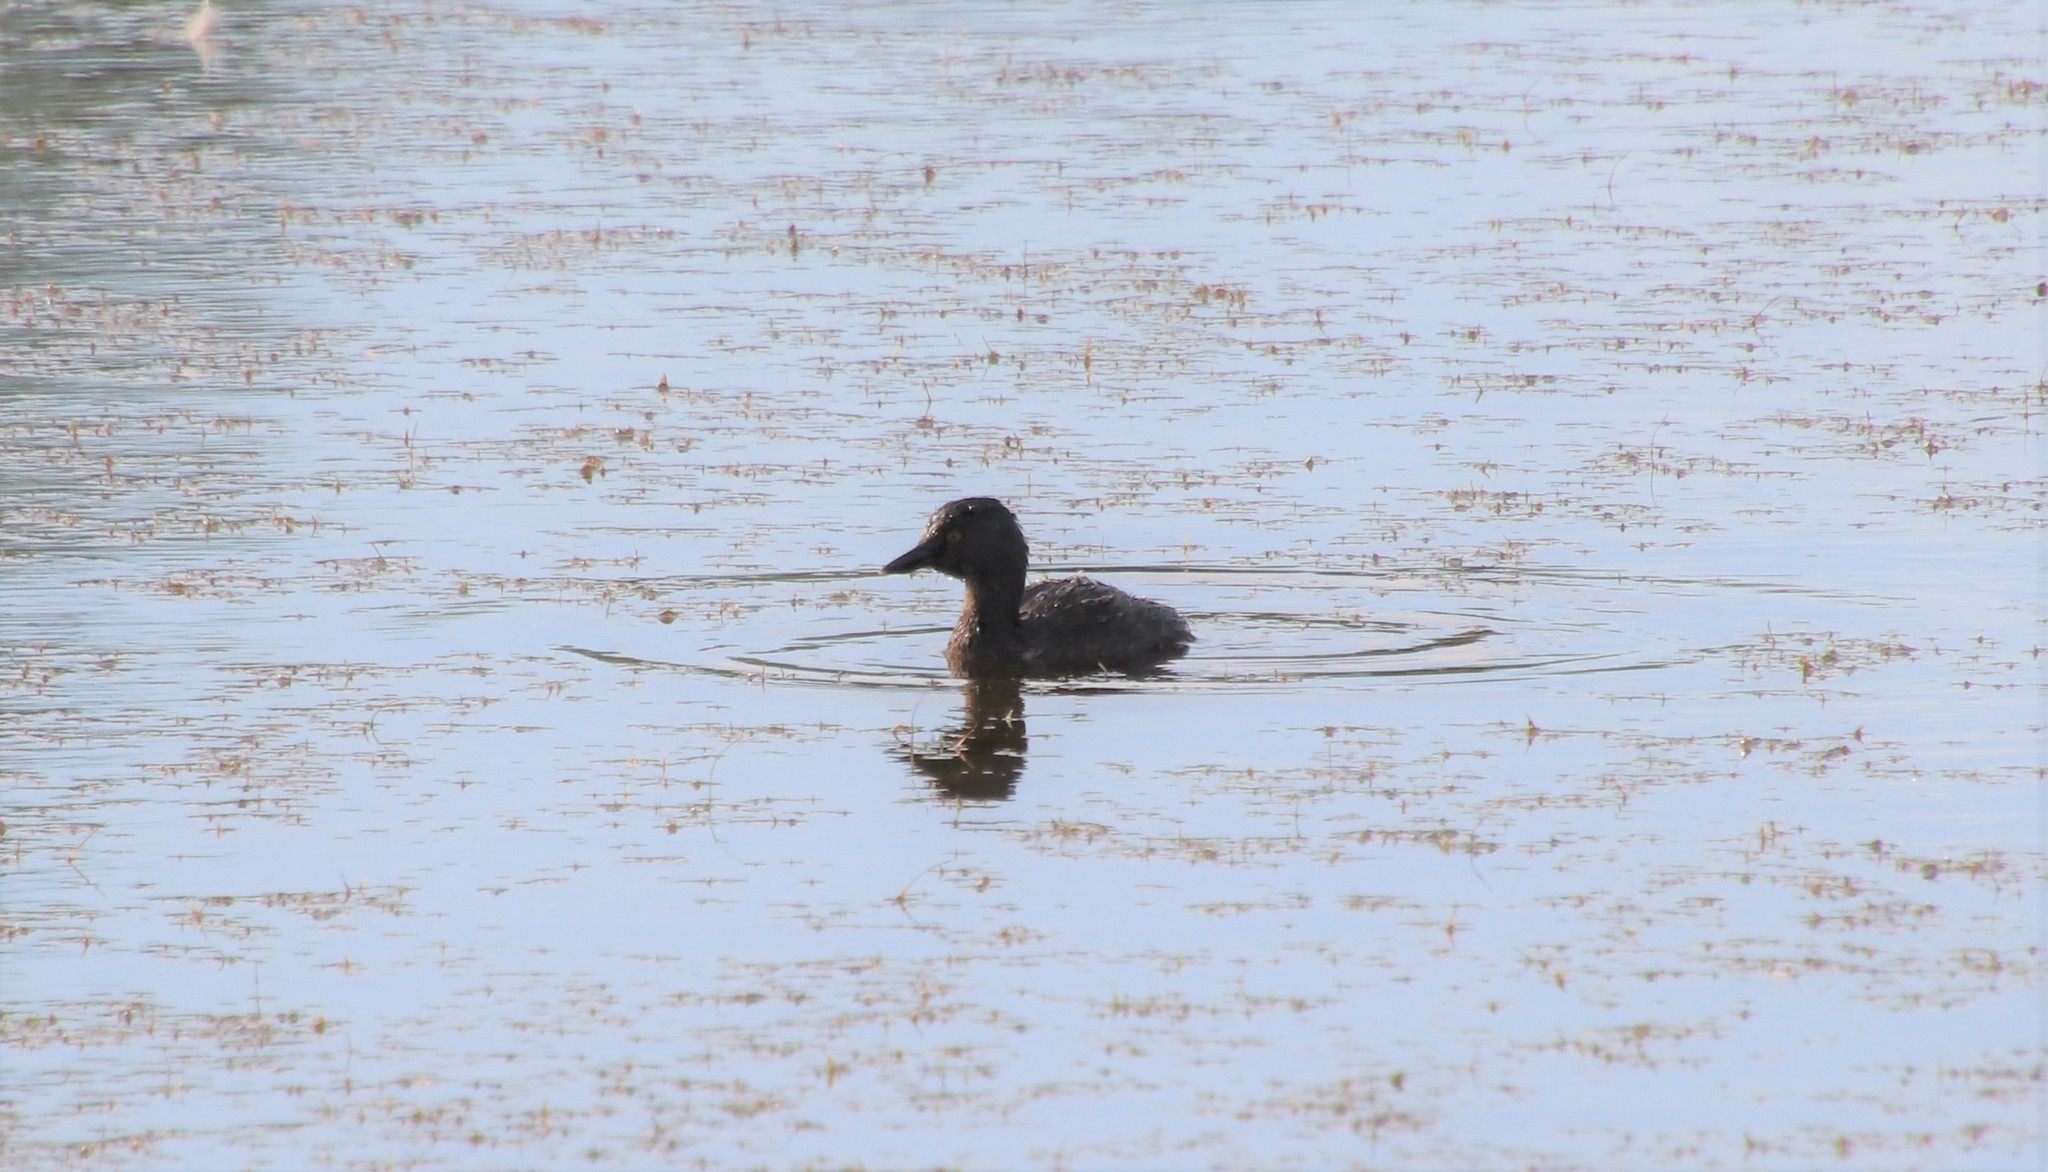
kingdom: Animalia
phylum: Chordata
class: Aves
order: Podicipediformes
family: Podicipedidae
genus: Tachybaptus
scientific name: Tachybaptus dominicus
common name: Least grebe
